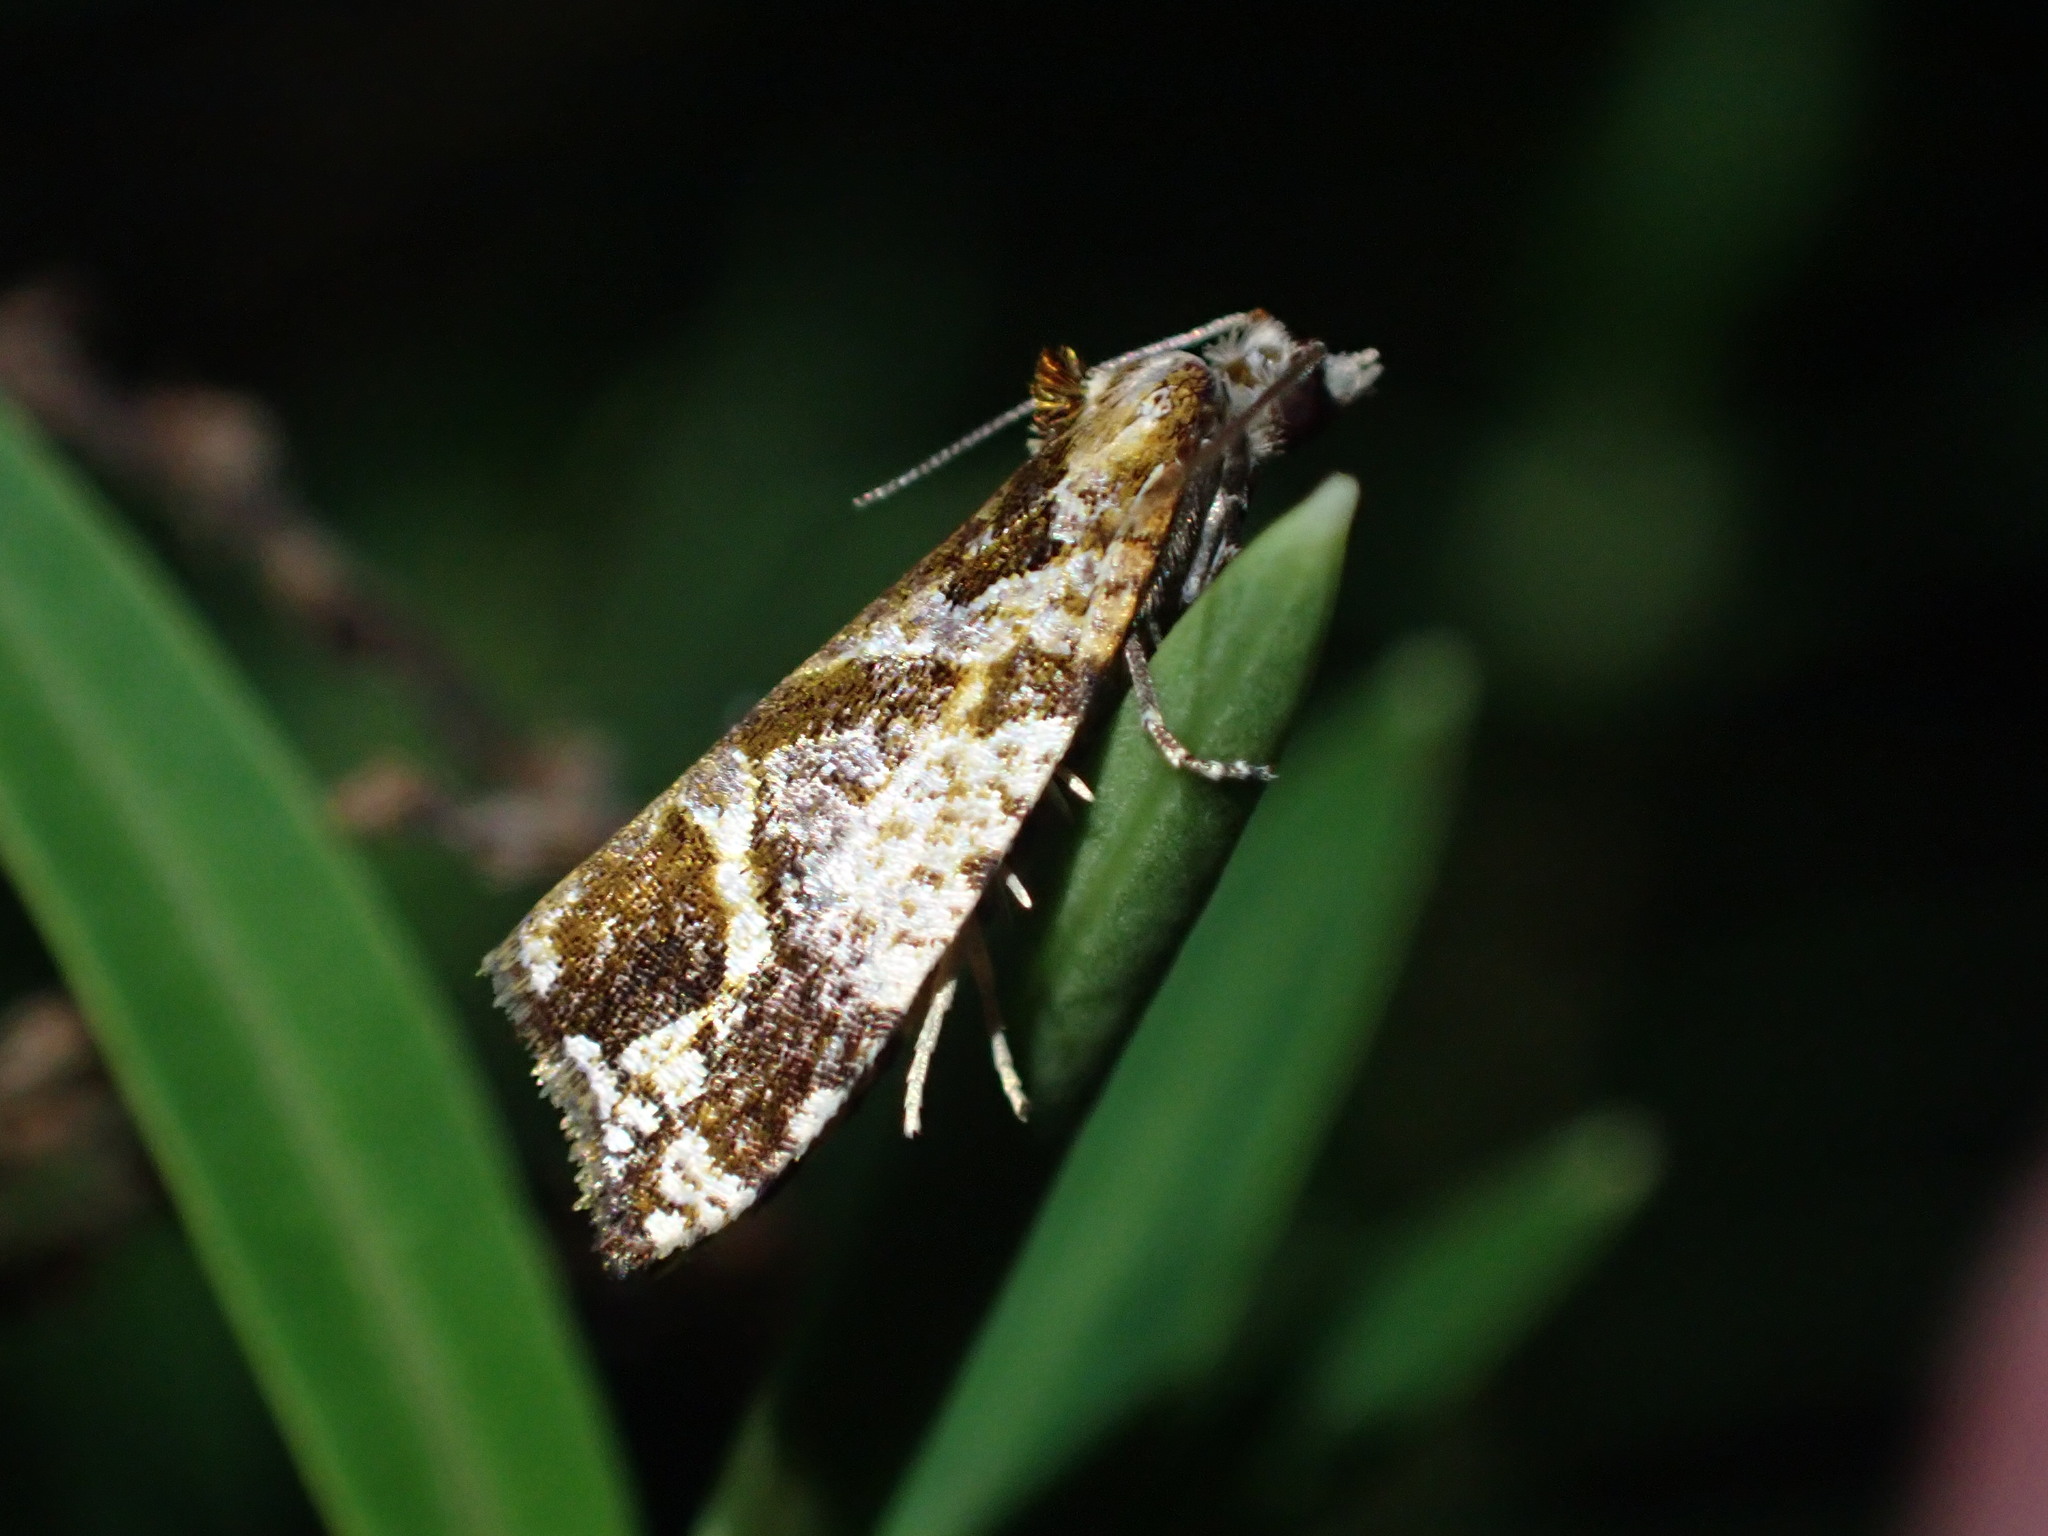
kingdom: Animalia
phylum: Arthropoda
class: Insecta
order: Lepidoptera
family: Tortricidae
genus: Pyrgotis
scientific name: Pyrgotis plagiatana
